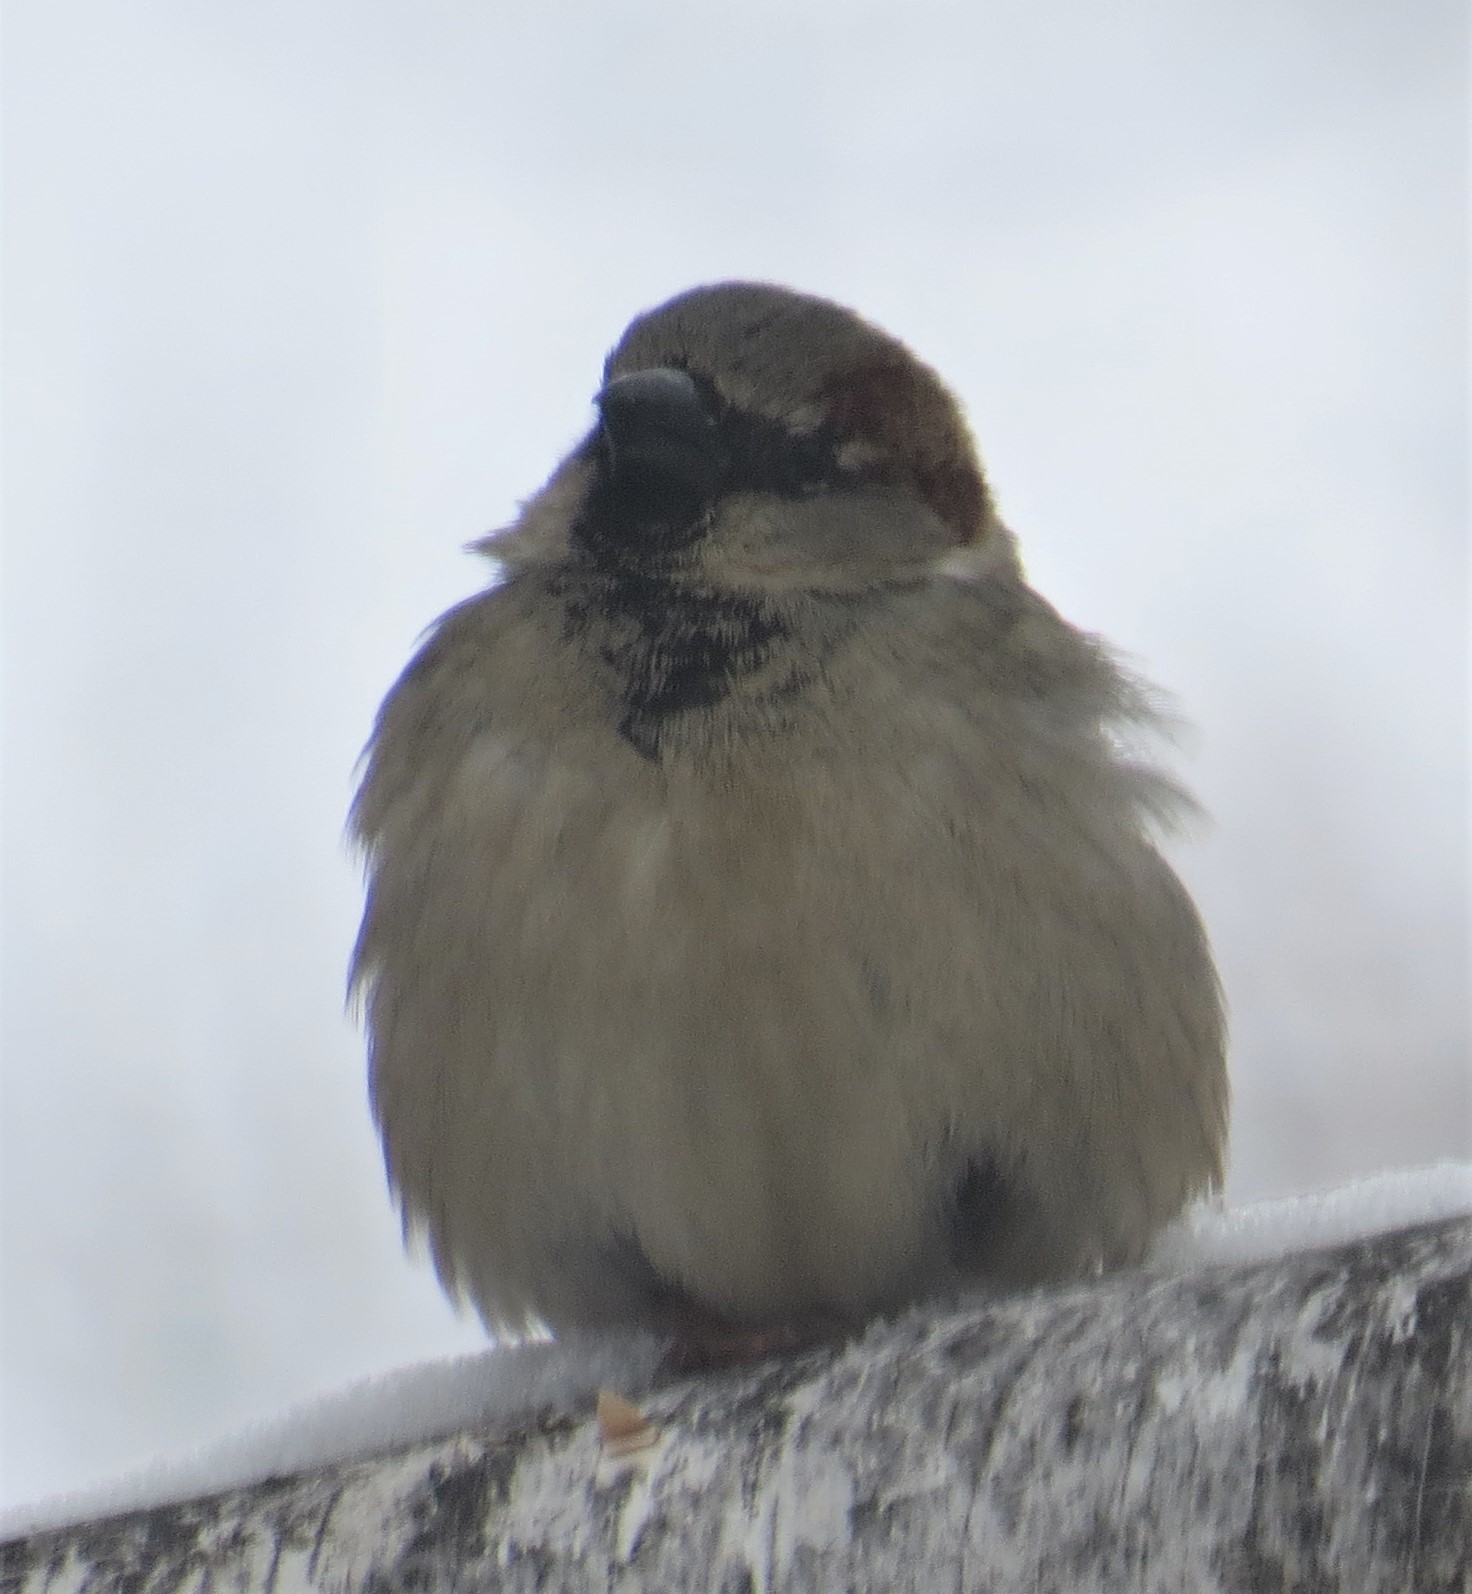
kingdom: Animalia
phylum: Chordata
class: Aves
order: Passeriformes
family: Passeridae
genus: Passer
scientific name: Passer domesticus
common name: House sparrow
